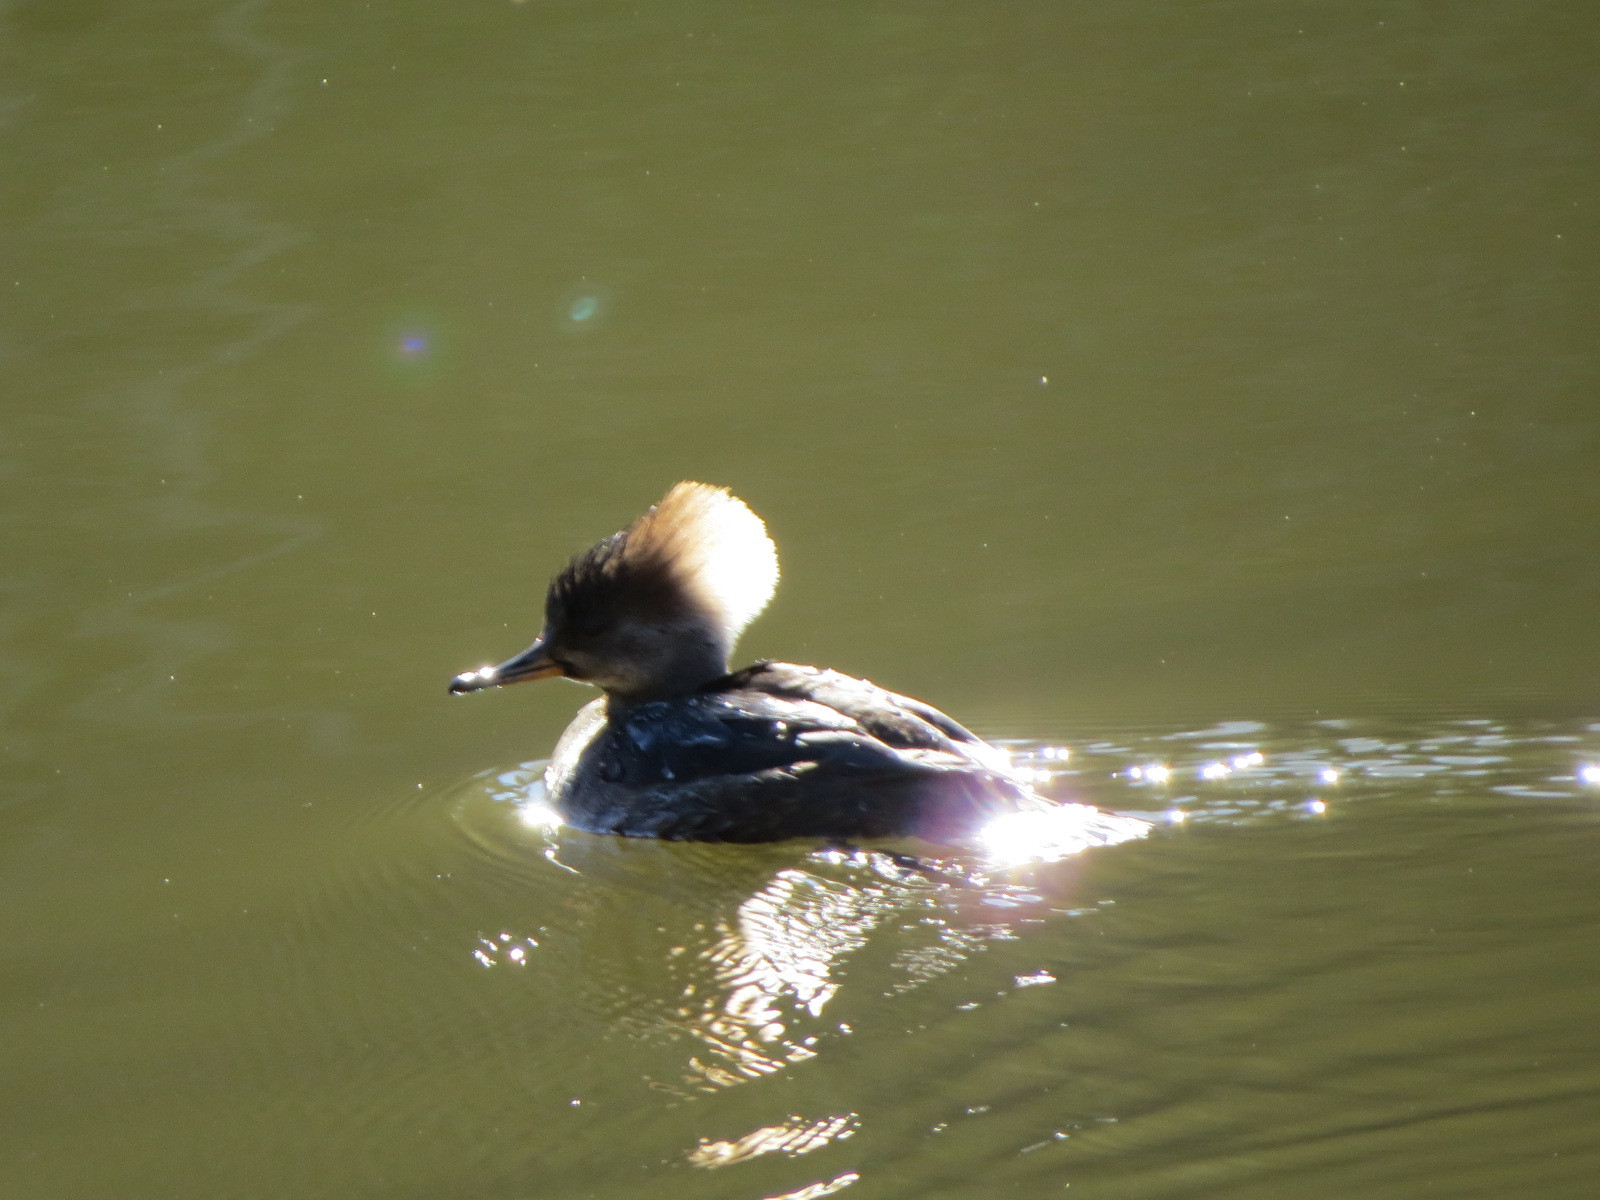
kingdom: Animalia
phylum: Chordata
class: Aves
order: Anseriformes
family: Anatidae
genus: Lophodytes
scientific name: Lophodytes cucullatus
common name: Hooded merganser
